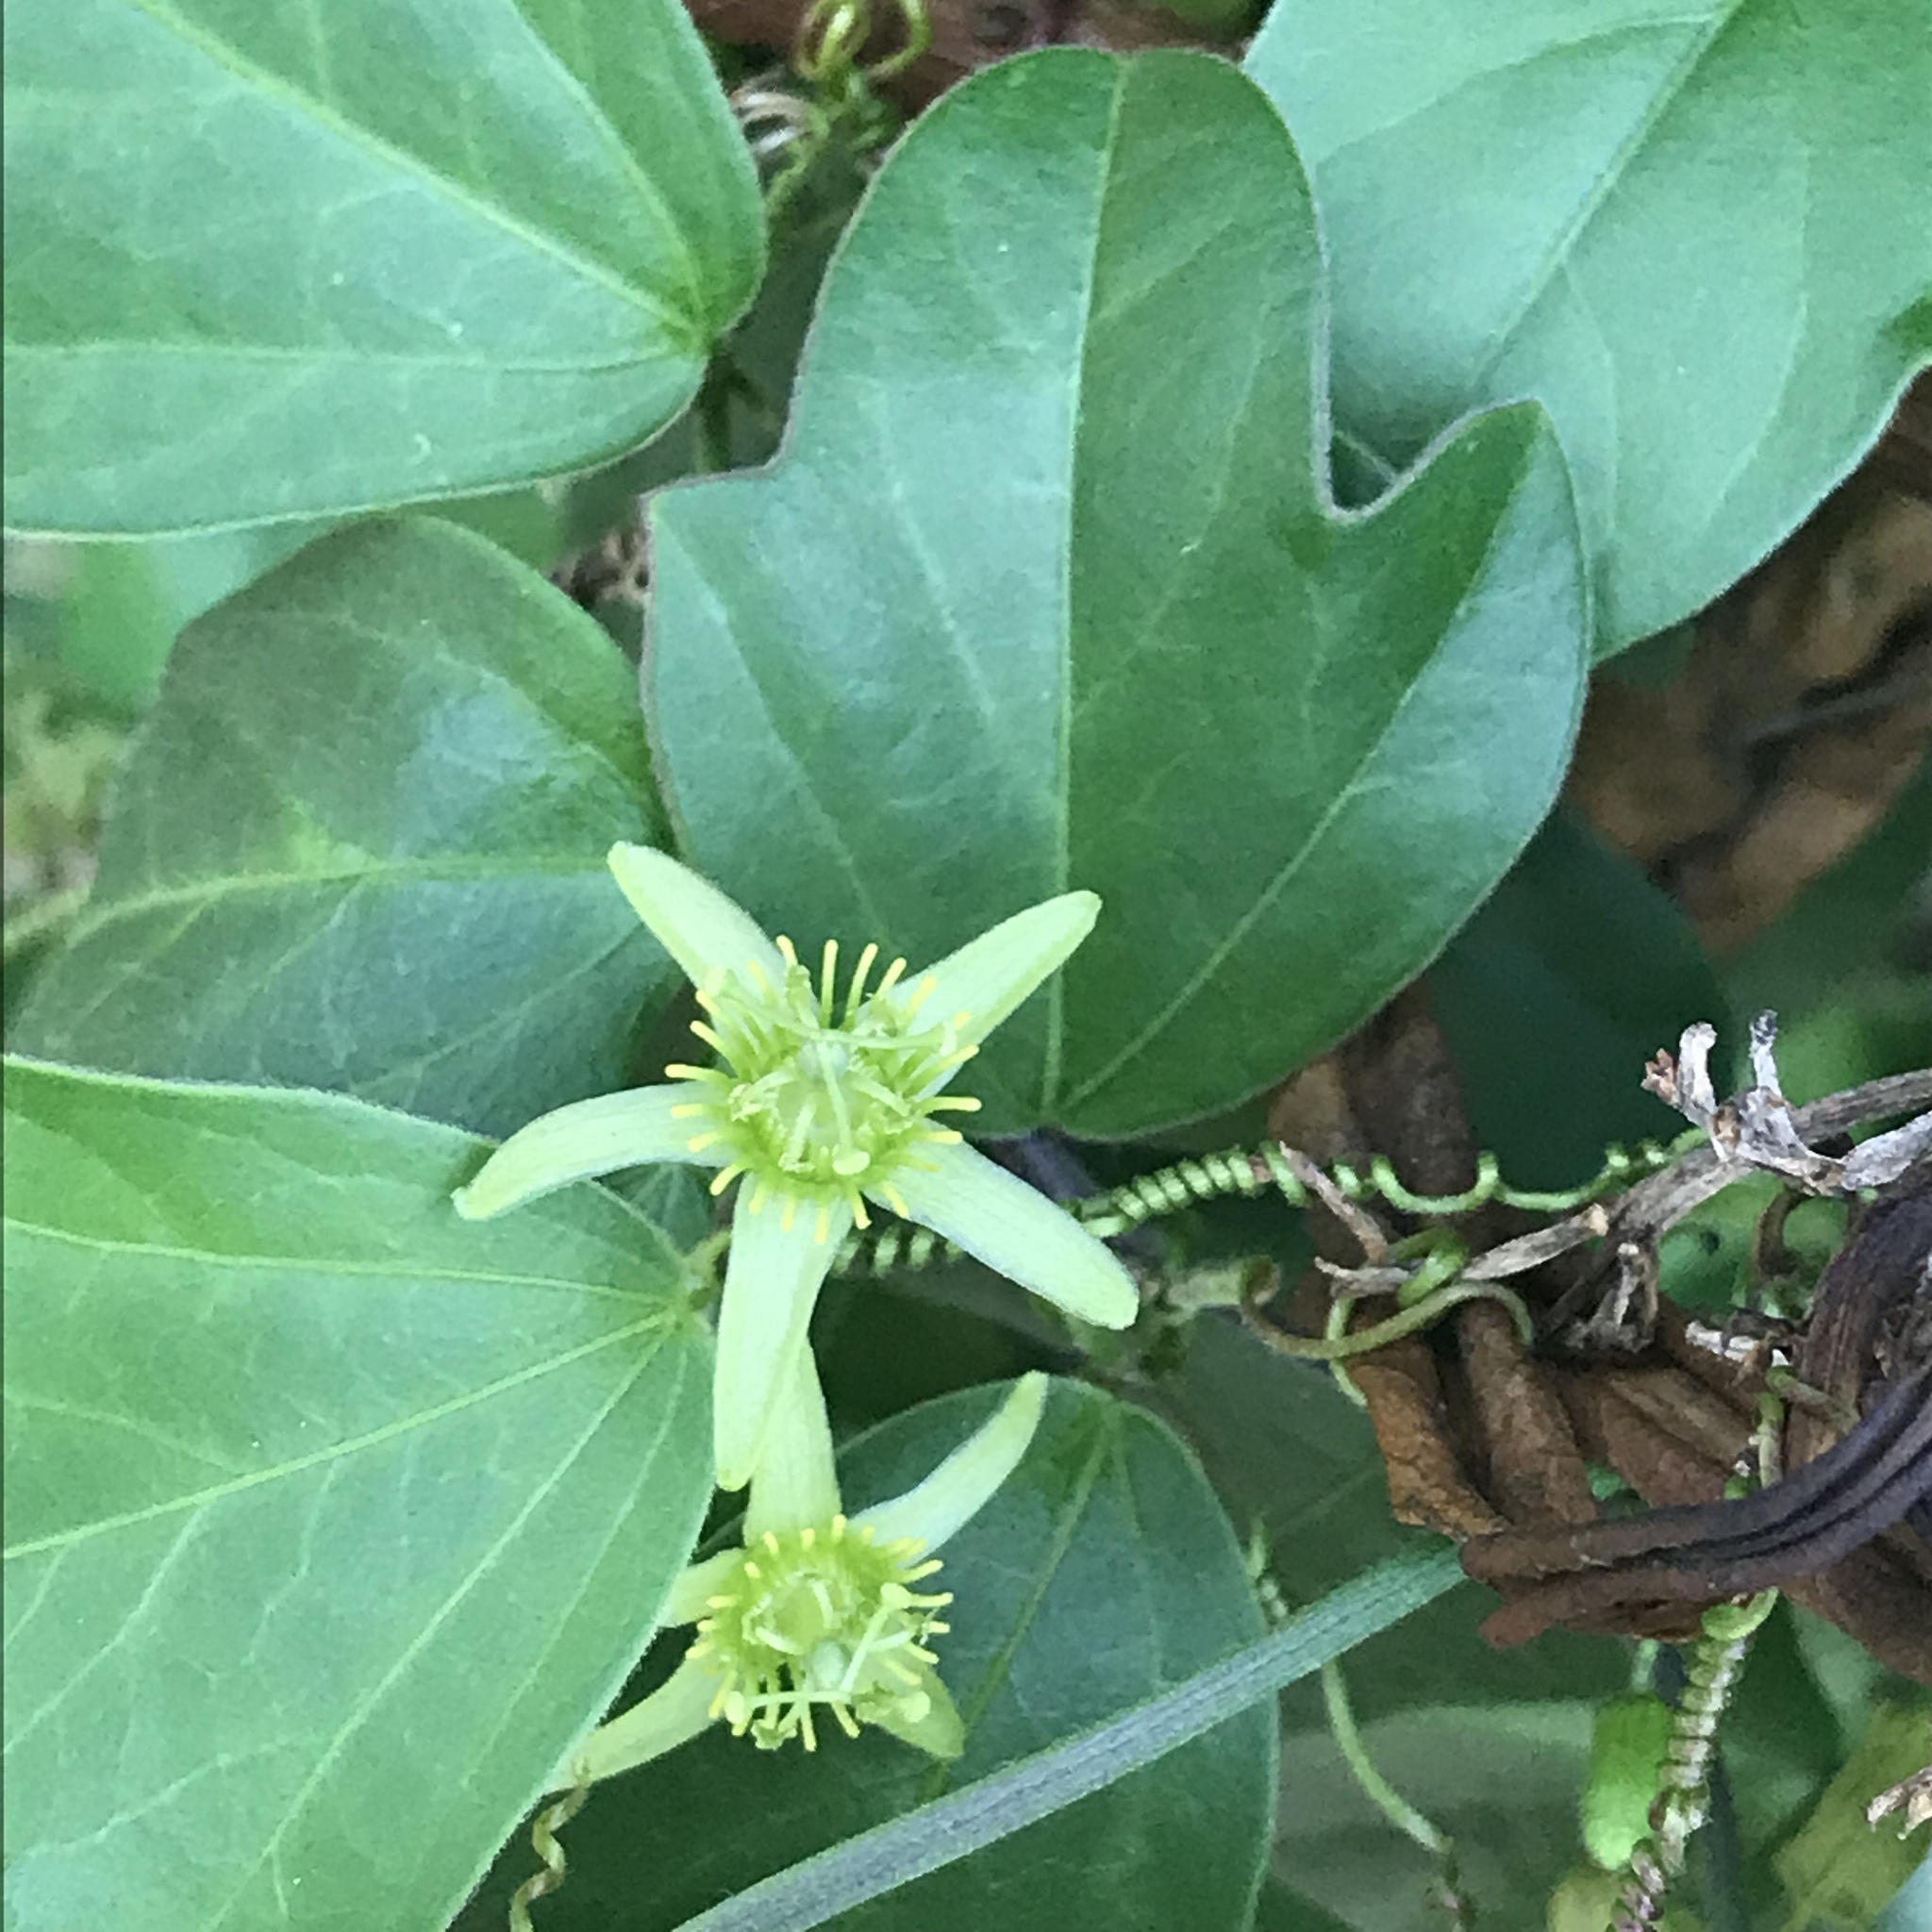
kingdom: Plantae
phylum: Tracheophyta
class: Magnoliopsida
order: Malpighiales
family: Passifloraceae
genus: Passiflora
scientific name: Passiflora pallida
